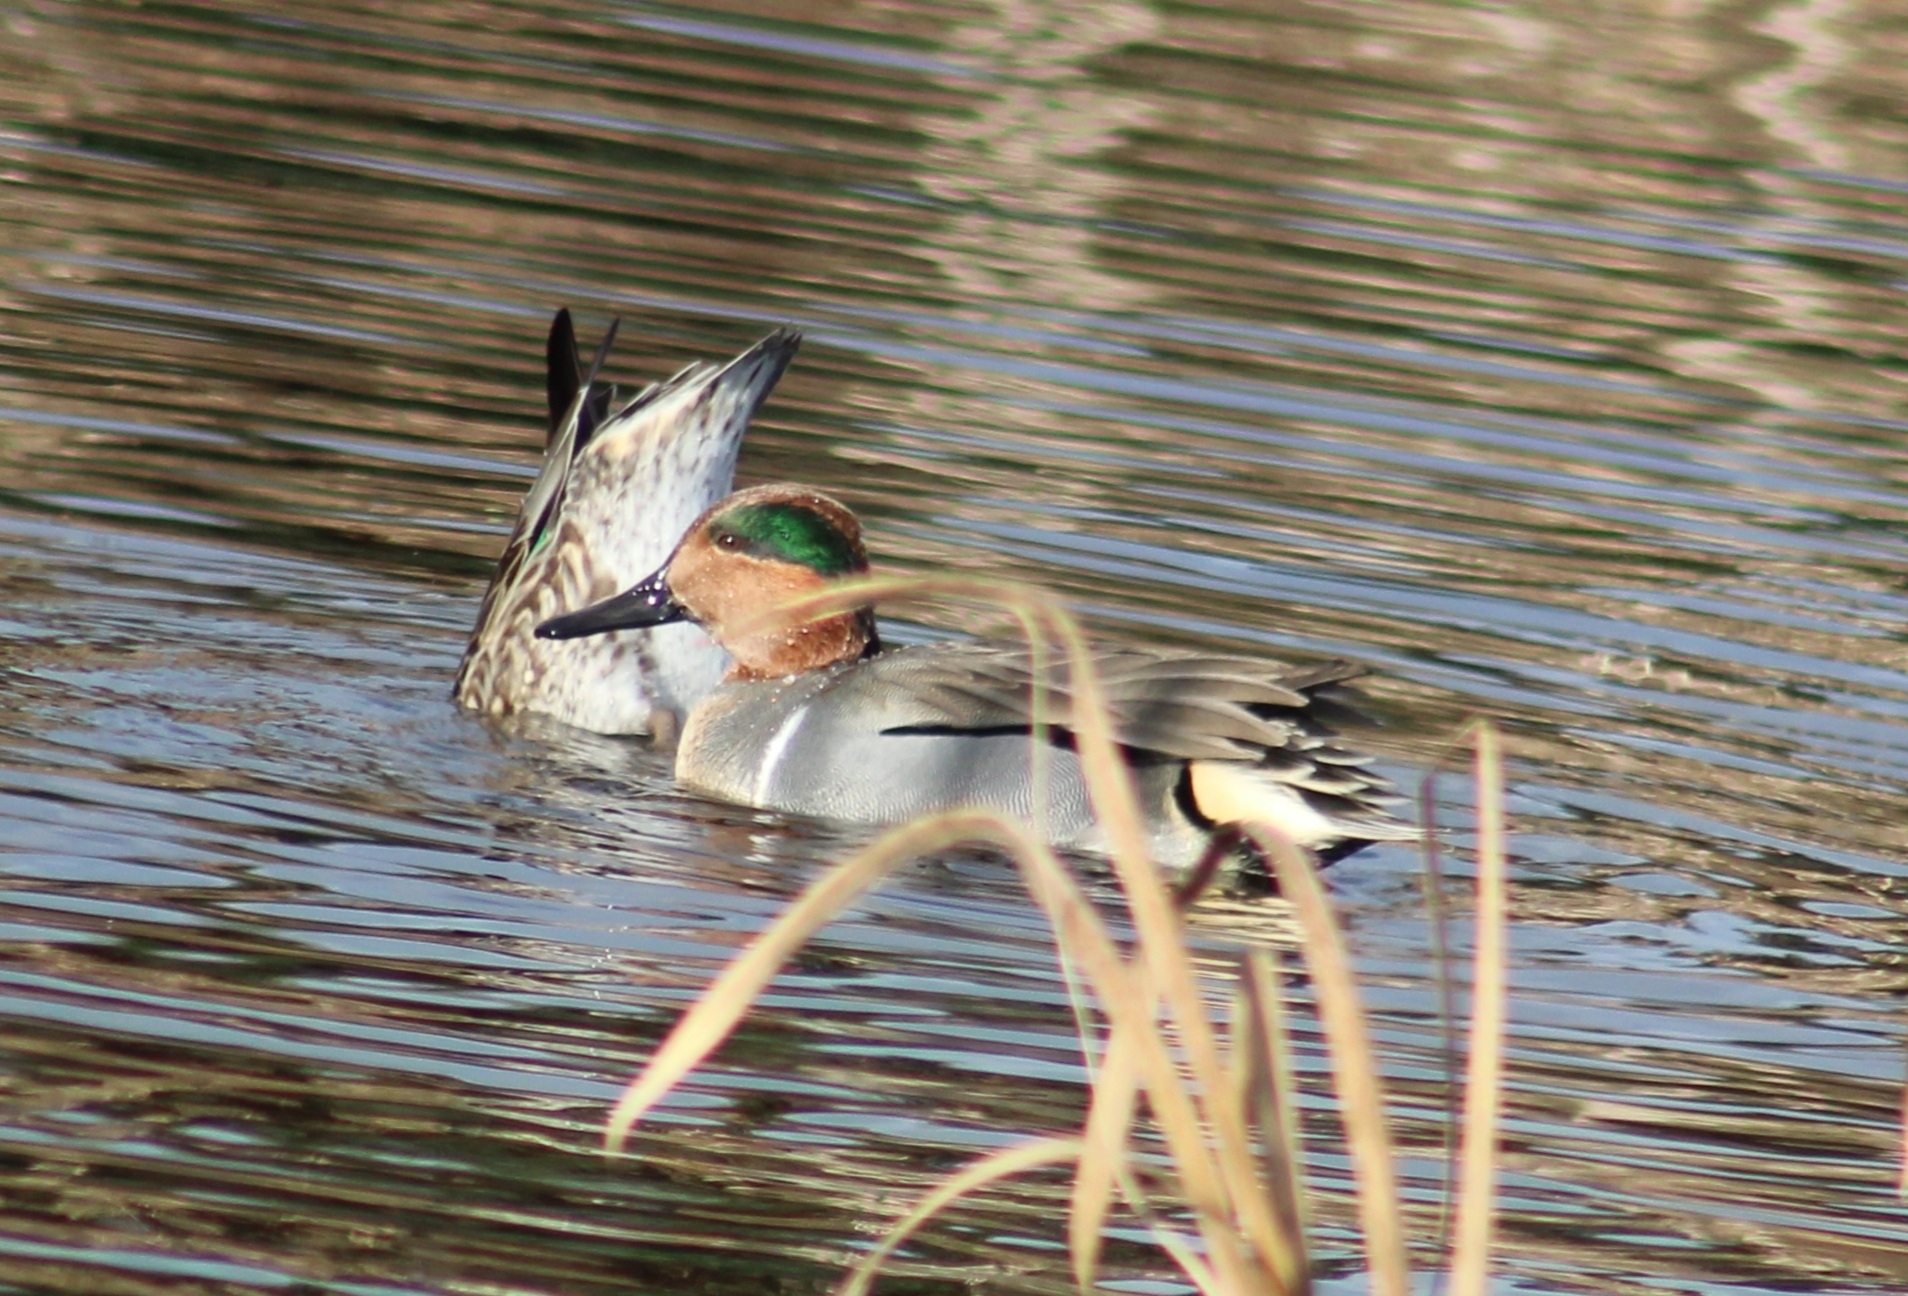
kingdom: Animalia
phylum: Chordata
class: Aves
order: Anseriformes
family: Anatidae
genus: Anas
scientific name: Anas crecca
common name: Eurasian teal
